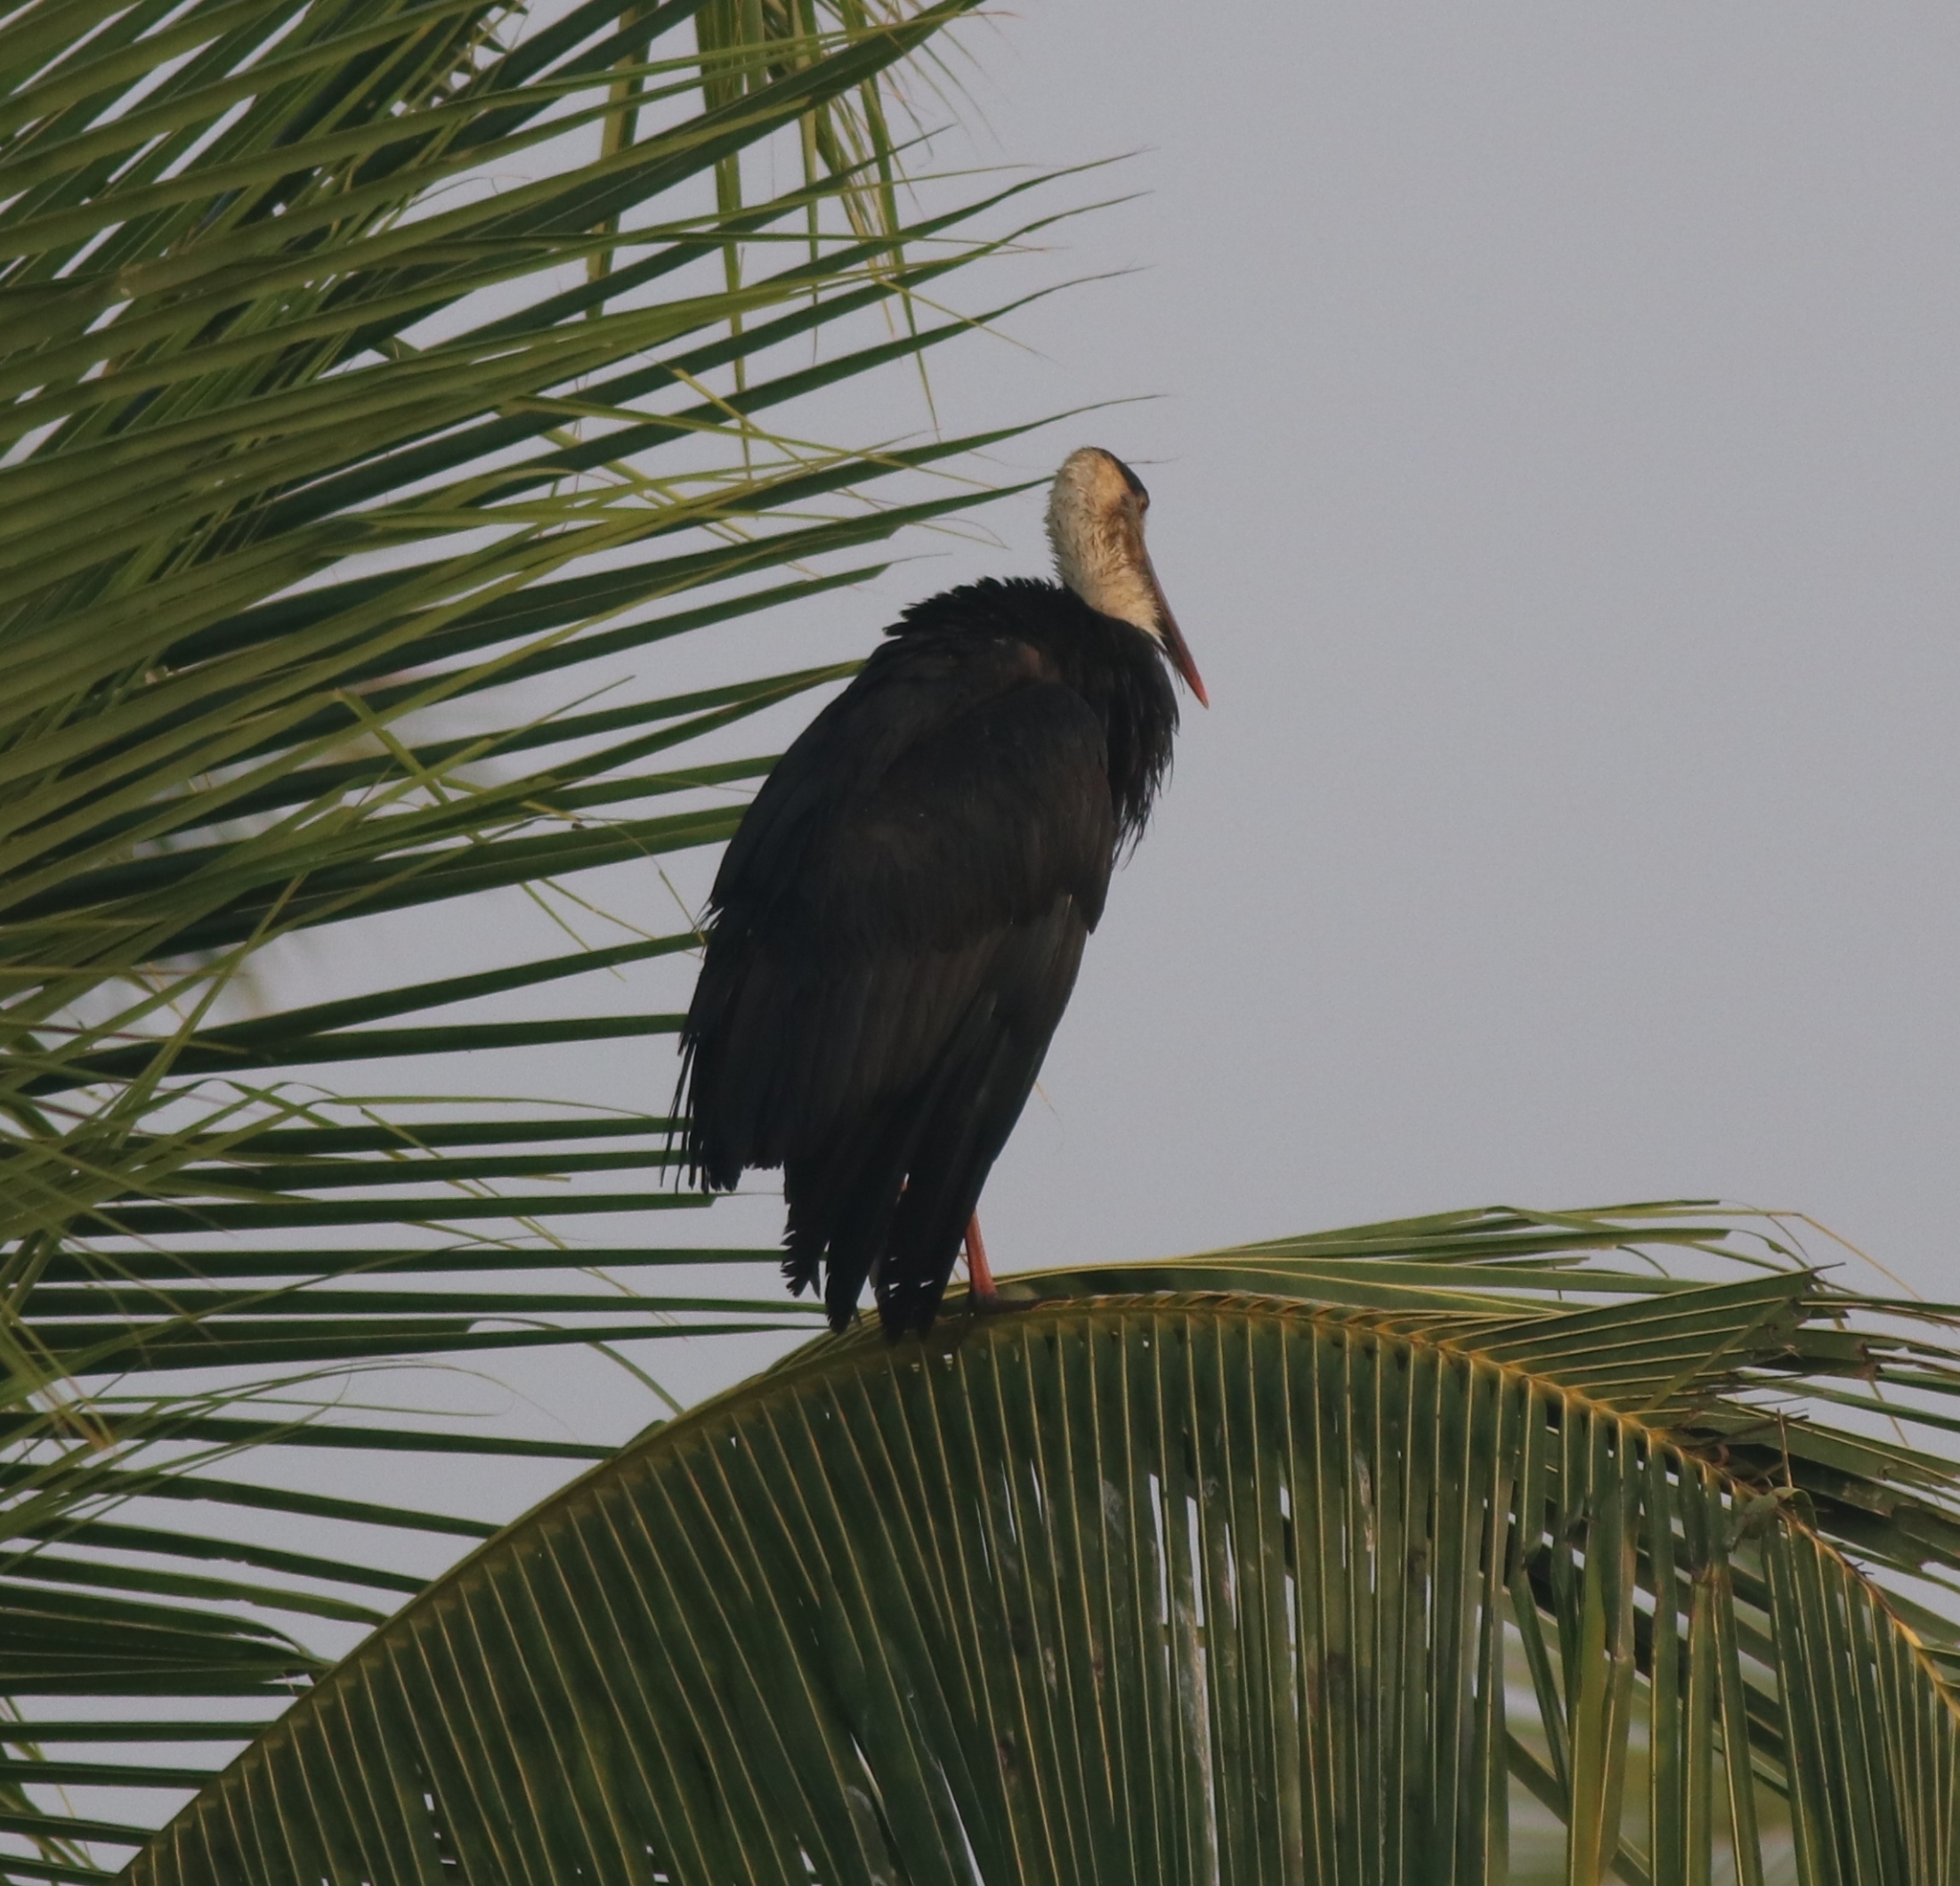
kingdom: Animalia
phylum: Chordata
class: Aves
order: Ciconiiformes
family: Ciconiidae
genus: Ciconia
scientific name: Ciconia episcopus
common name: Woolly-necked stork
